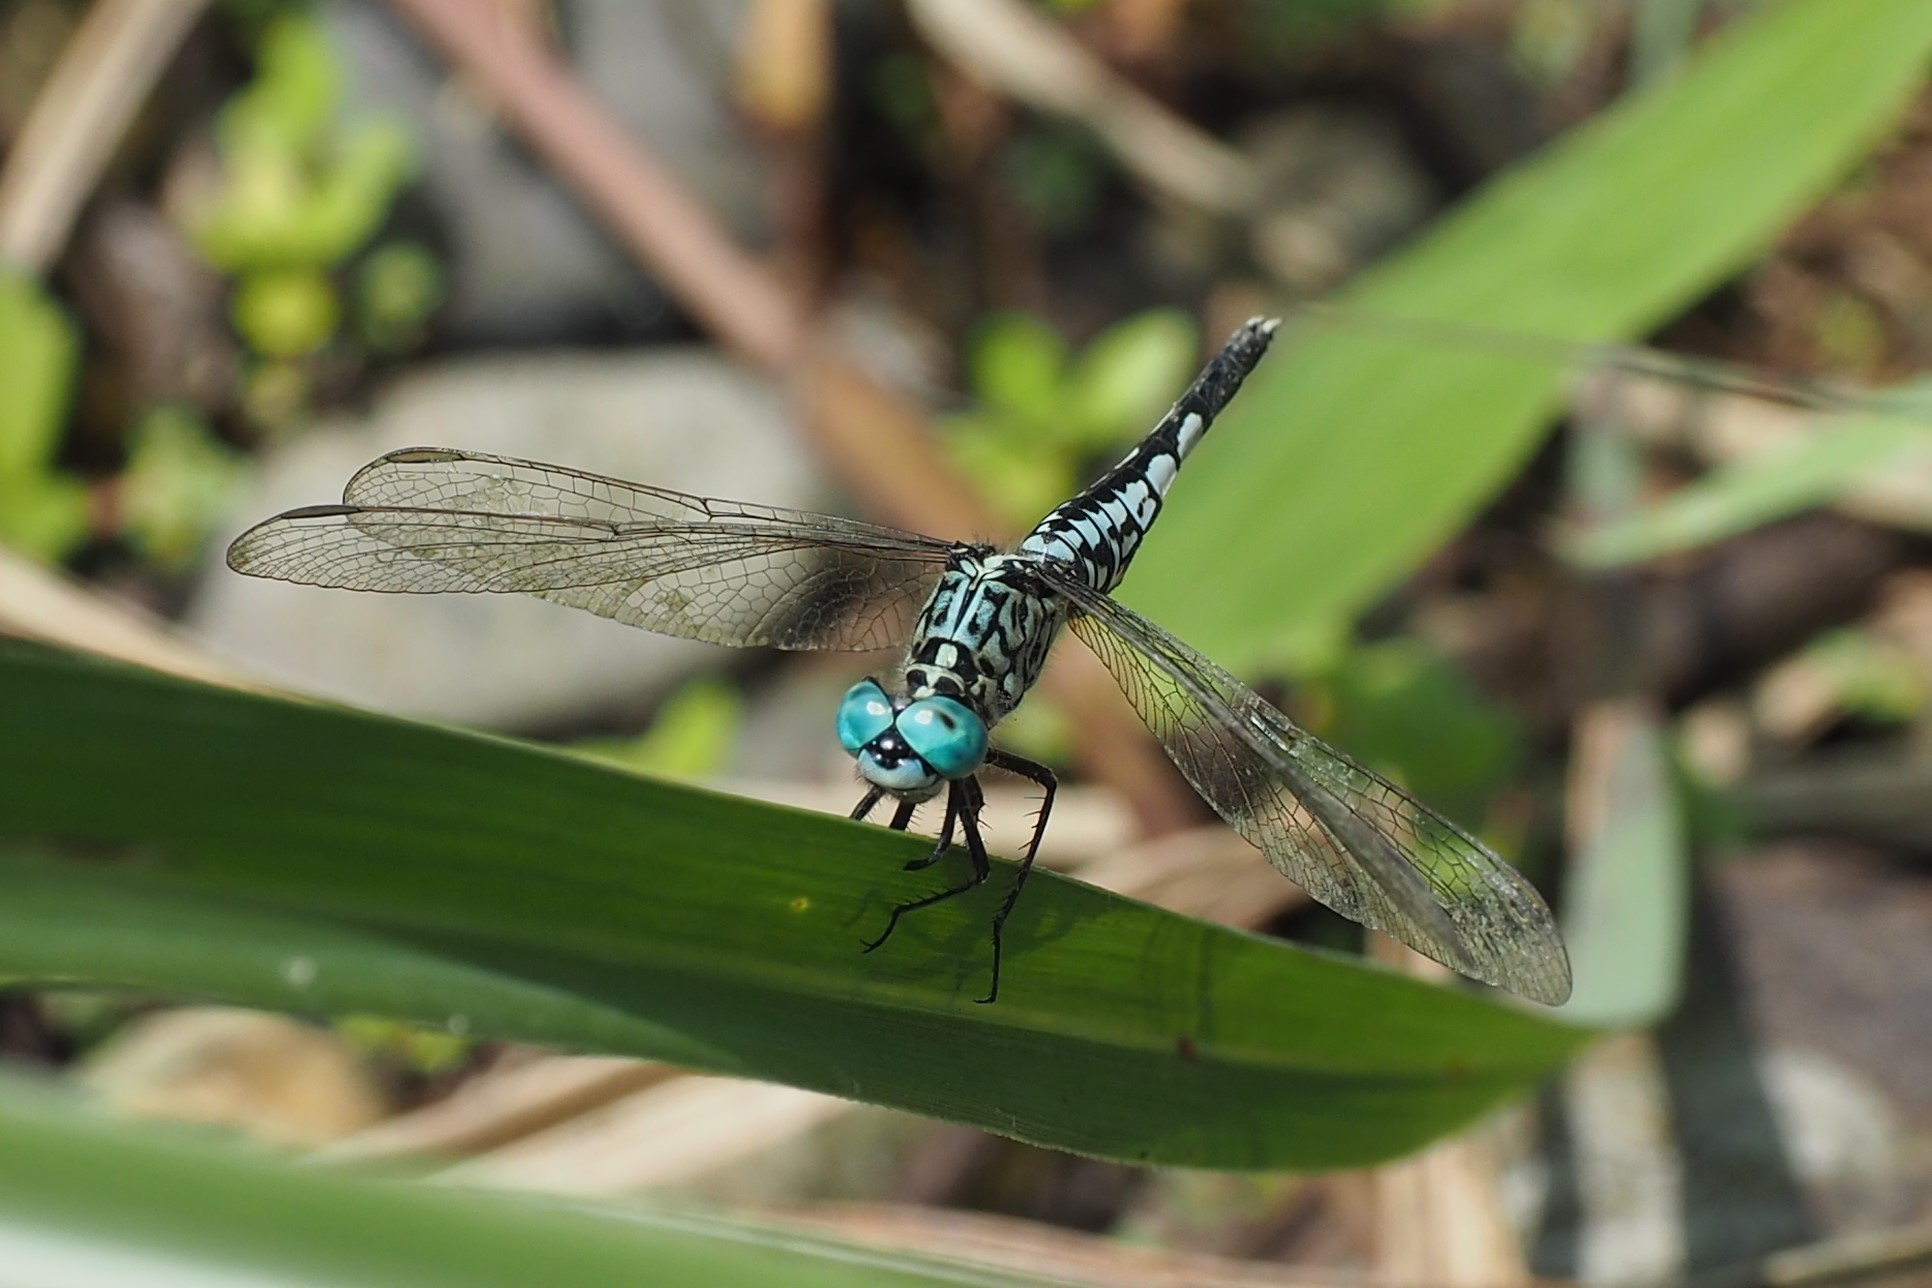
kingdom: Animalia
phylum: Arthropoda
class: Insecta
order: Odonata
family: Libellulidae
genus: Acisoma
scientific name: Acisoma panorpoides
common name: Asian pintail
